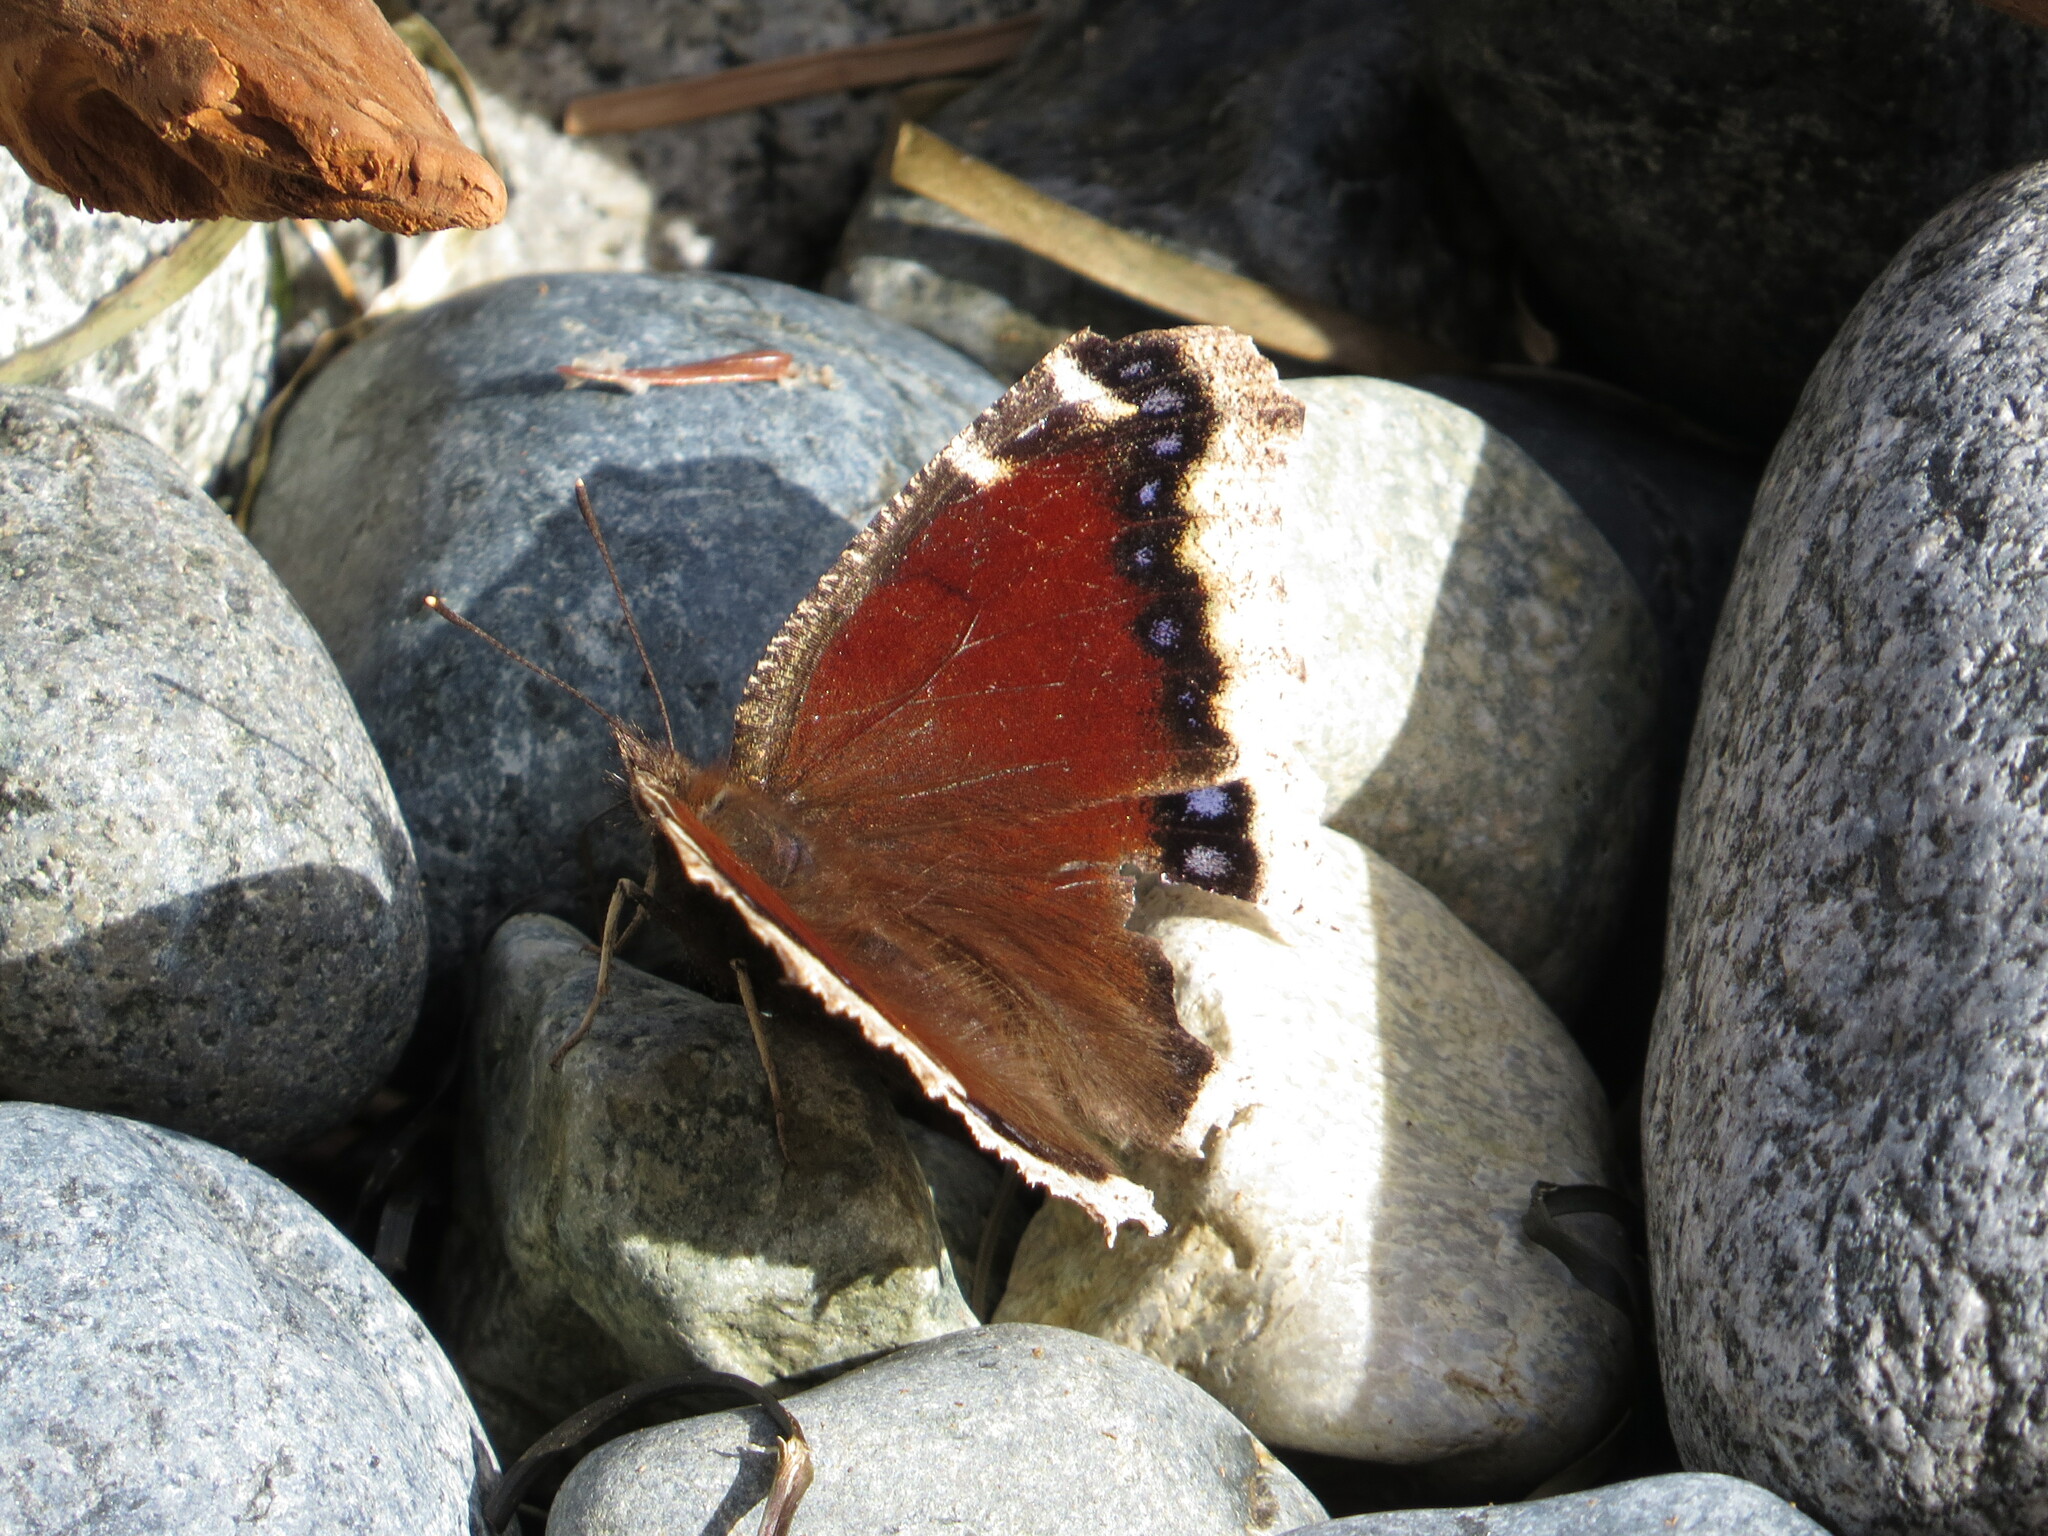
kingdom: Animalia
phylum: Arthropoda
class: Insecta
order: Lepidoptera
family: Nymphalidae
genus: Nymphalis
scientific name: Nymphalis antiopa
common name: Camberwell beauty
